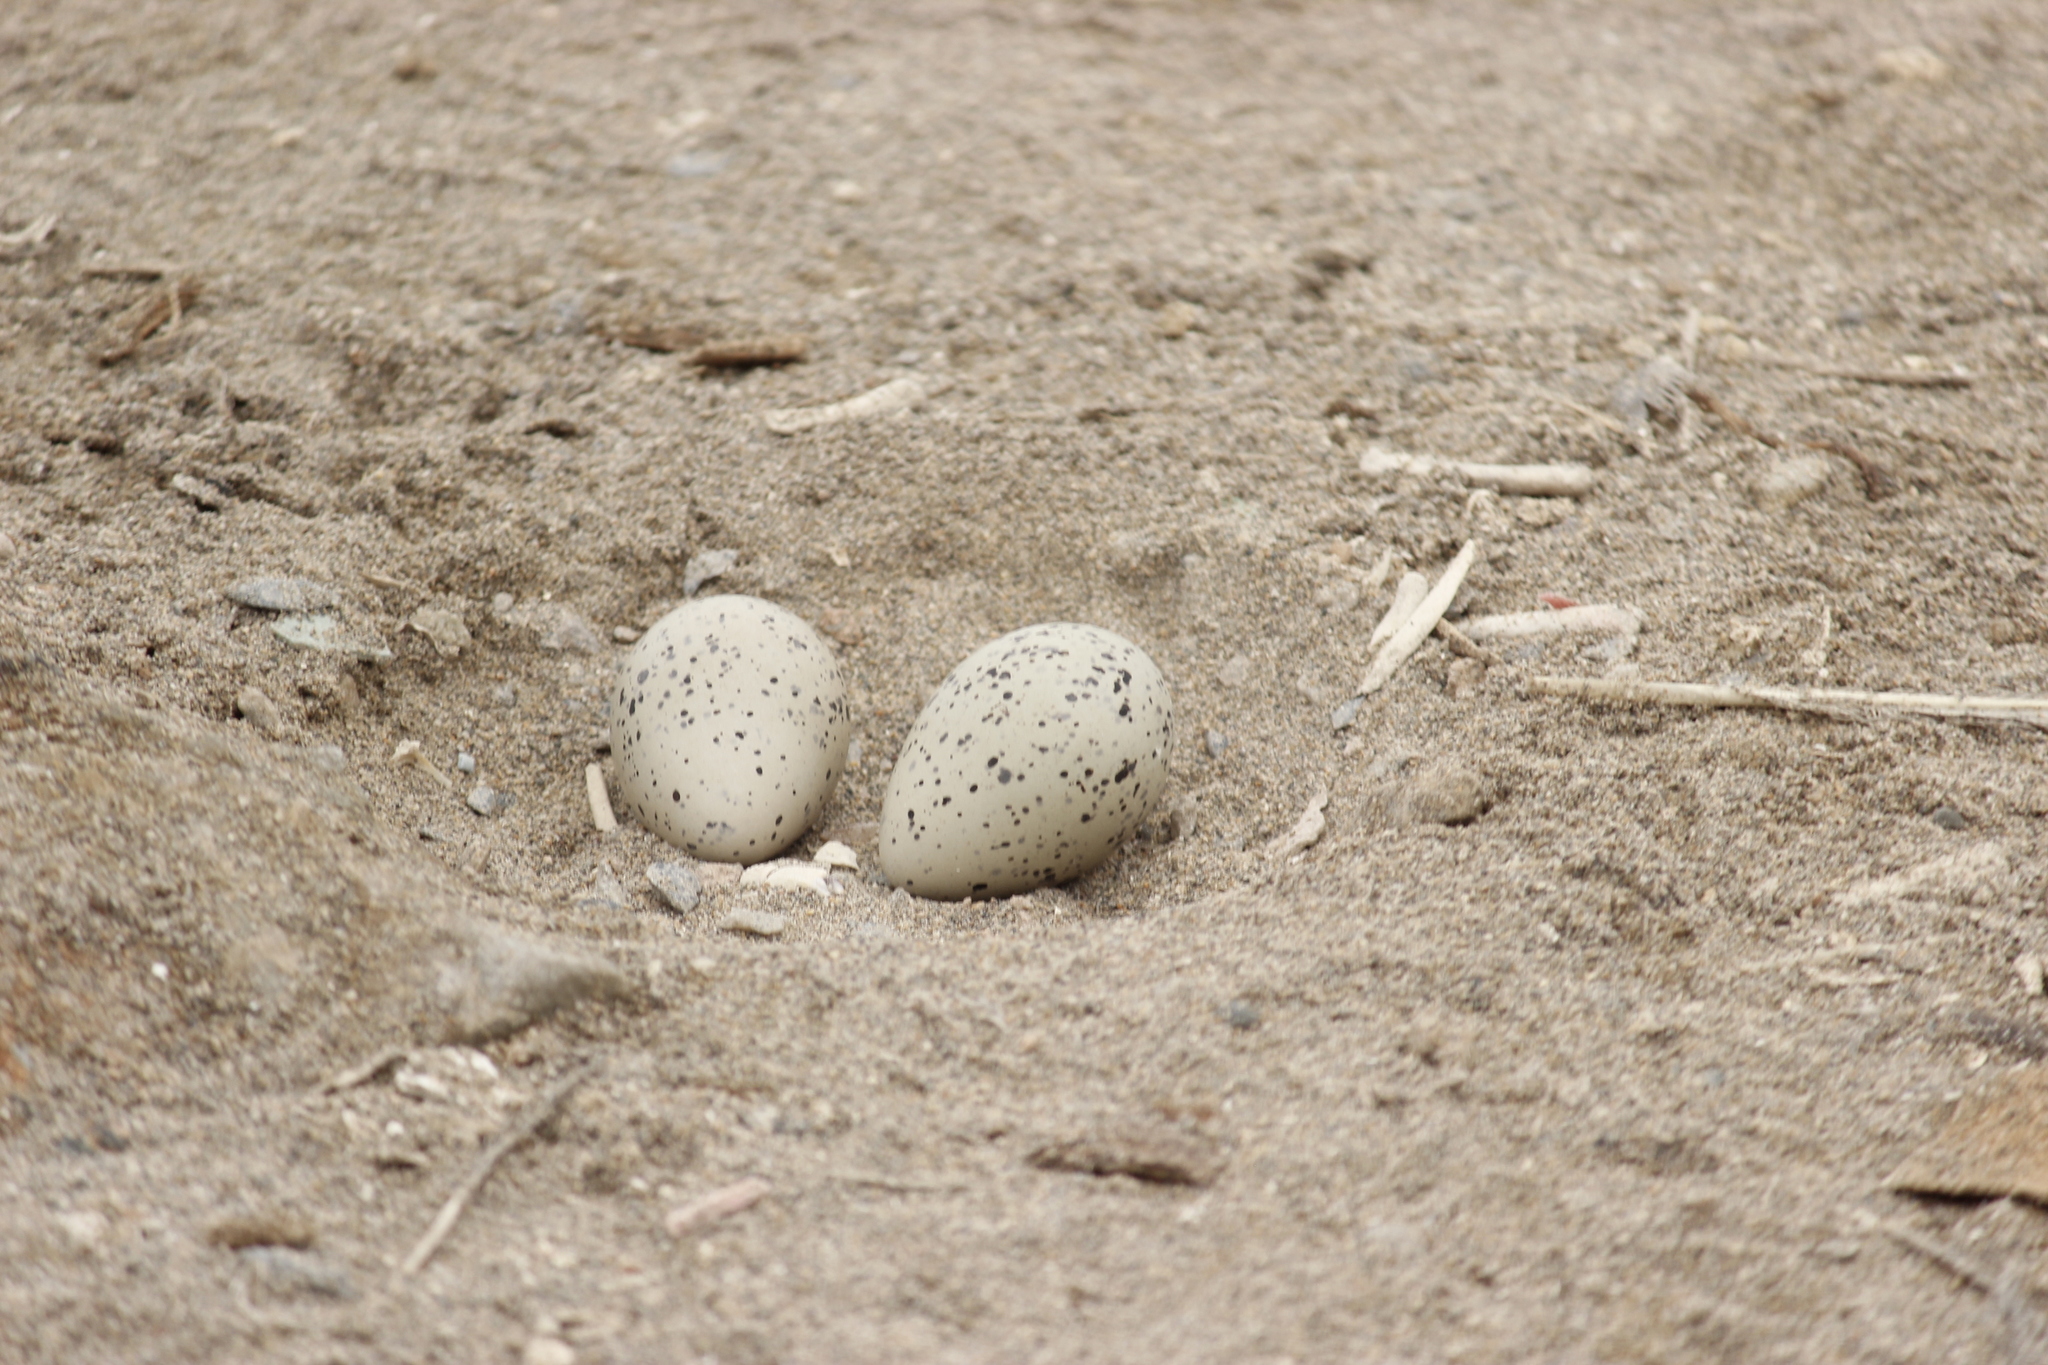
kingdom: Animalia
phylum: Chordata
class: Aves
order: Charadriiformes
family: Haematopodidae
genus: Haematopus
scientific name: Haematopus palliatus
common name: American oystercatcher
